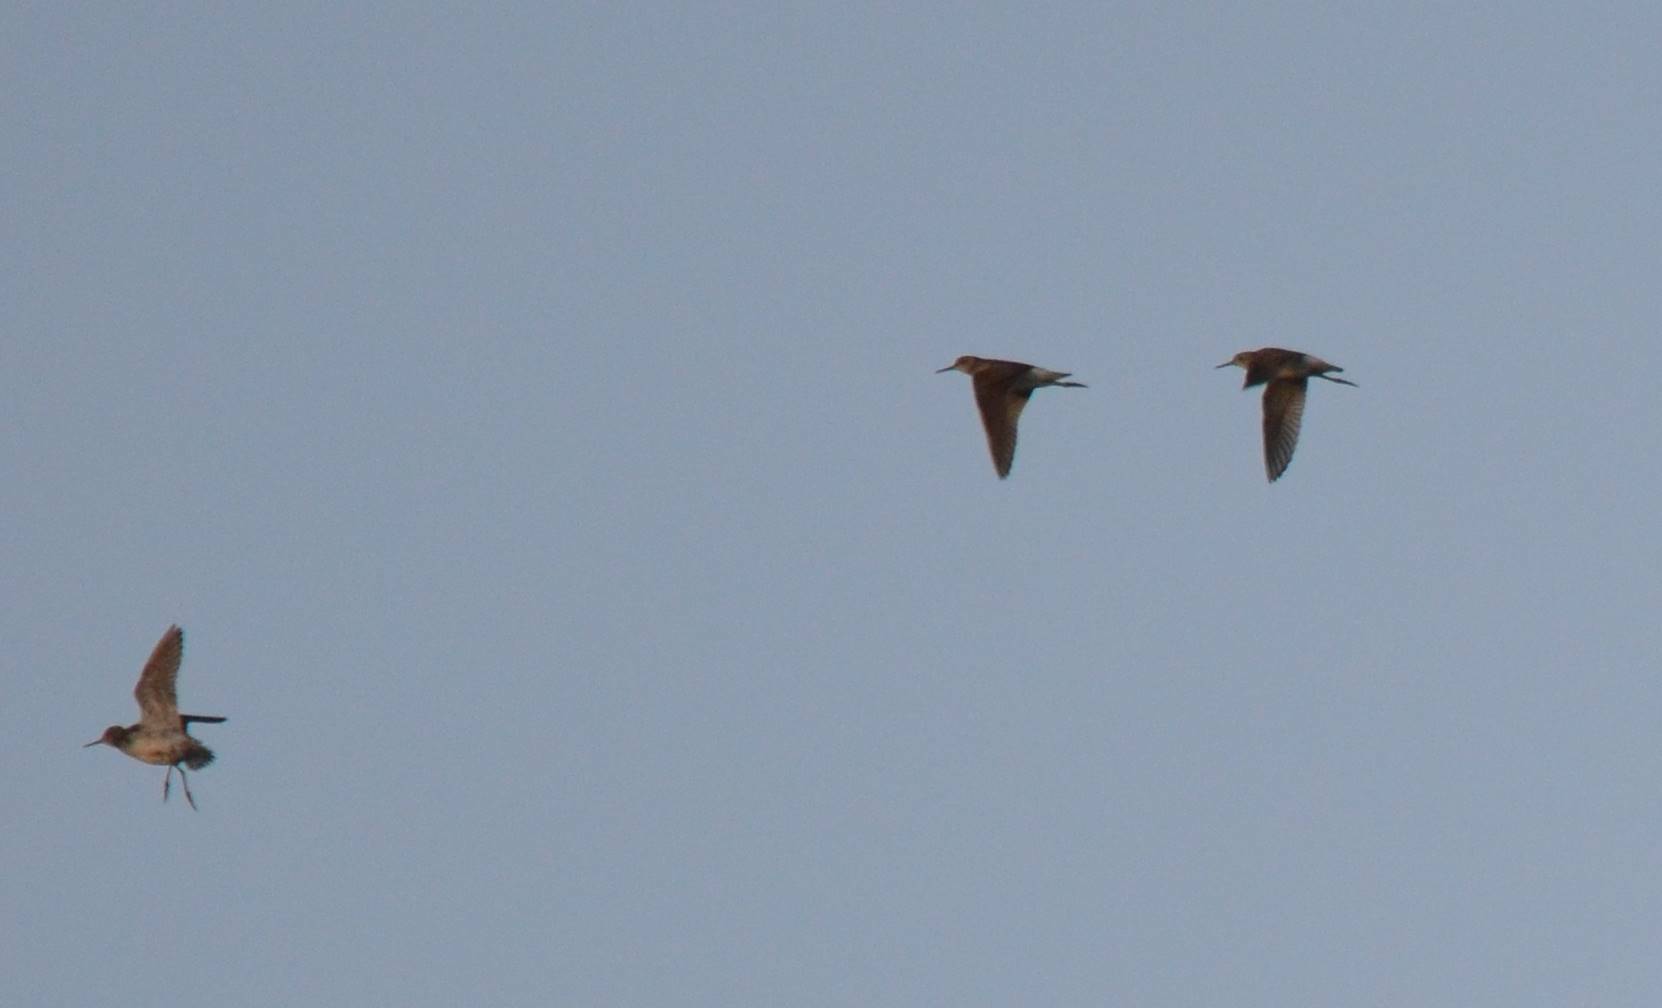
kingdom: Animalia
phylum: Chordata
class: Aves
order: Charadriiformes
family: Scolopacidae
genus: Tringa
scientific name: Tringa glareola
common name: Wood sandpiper
